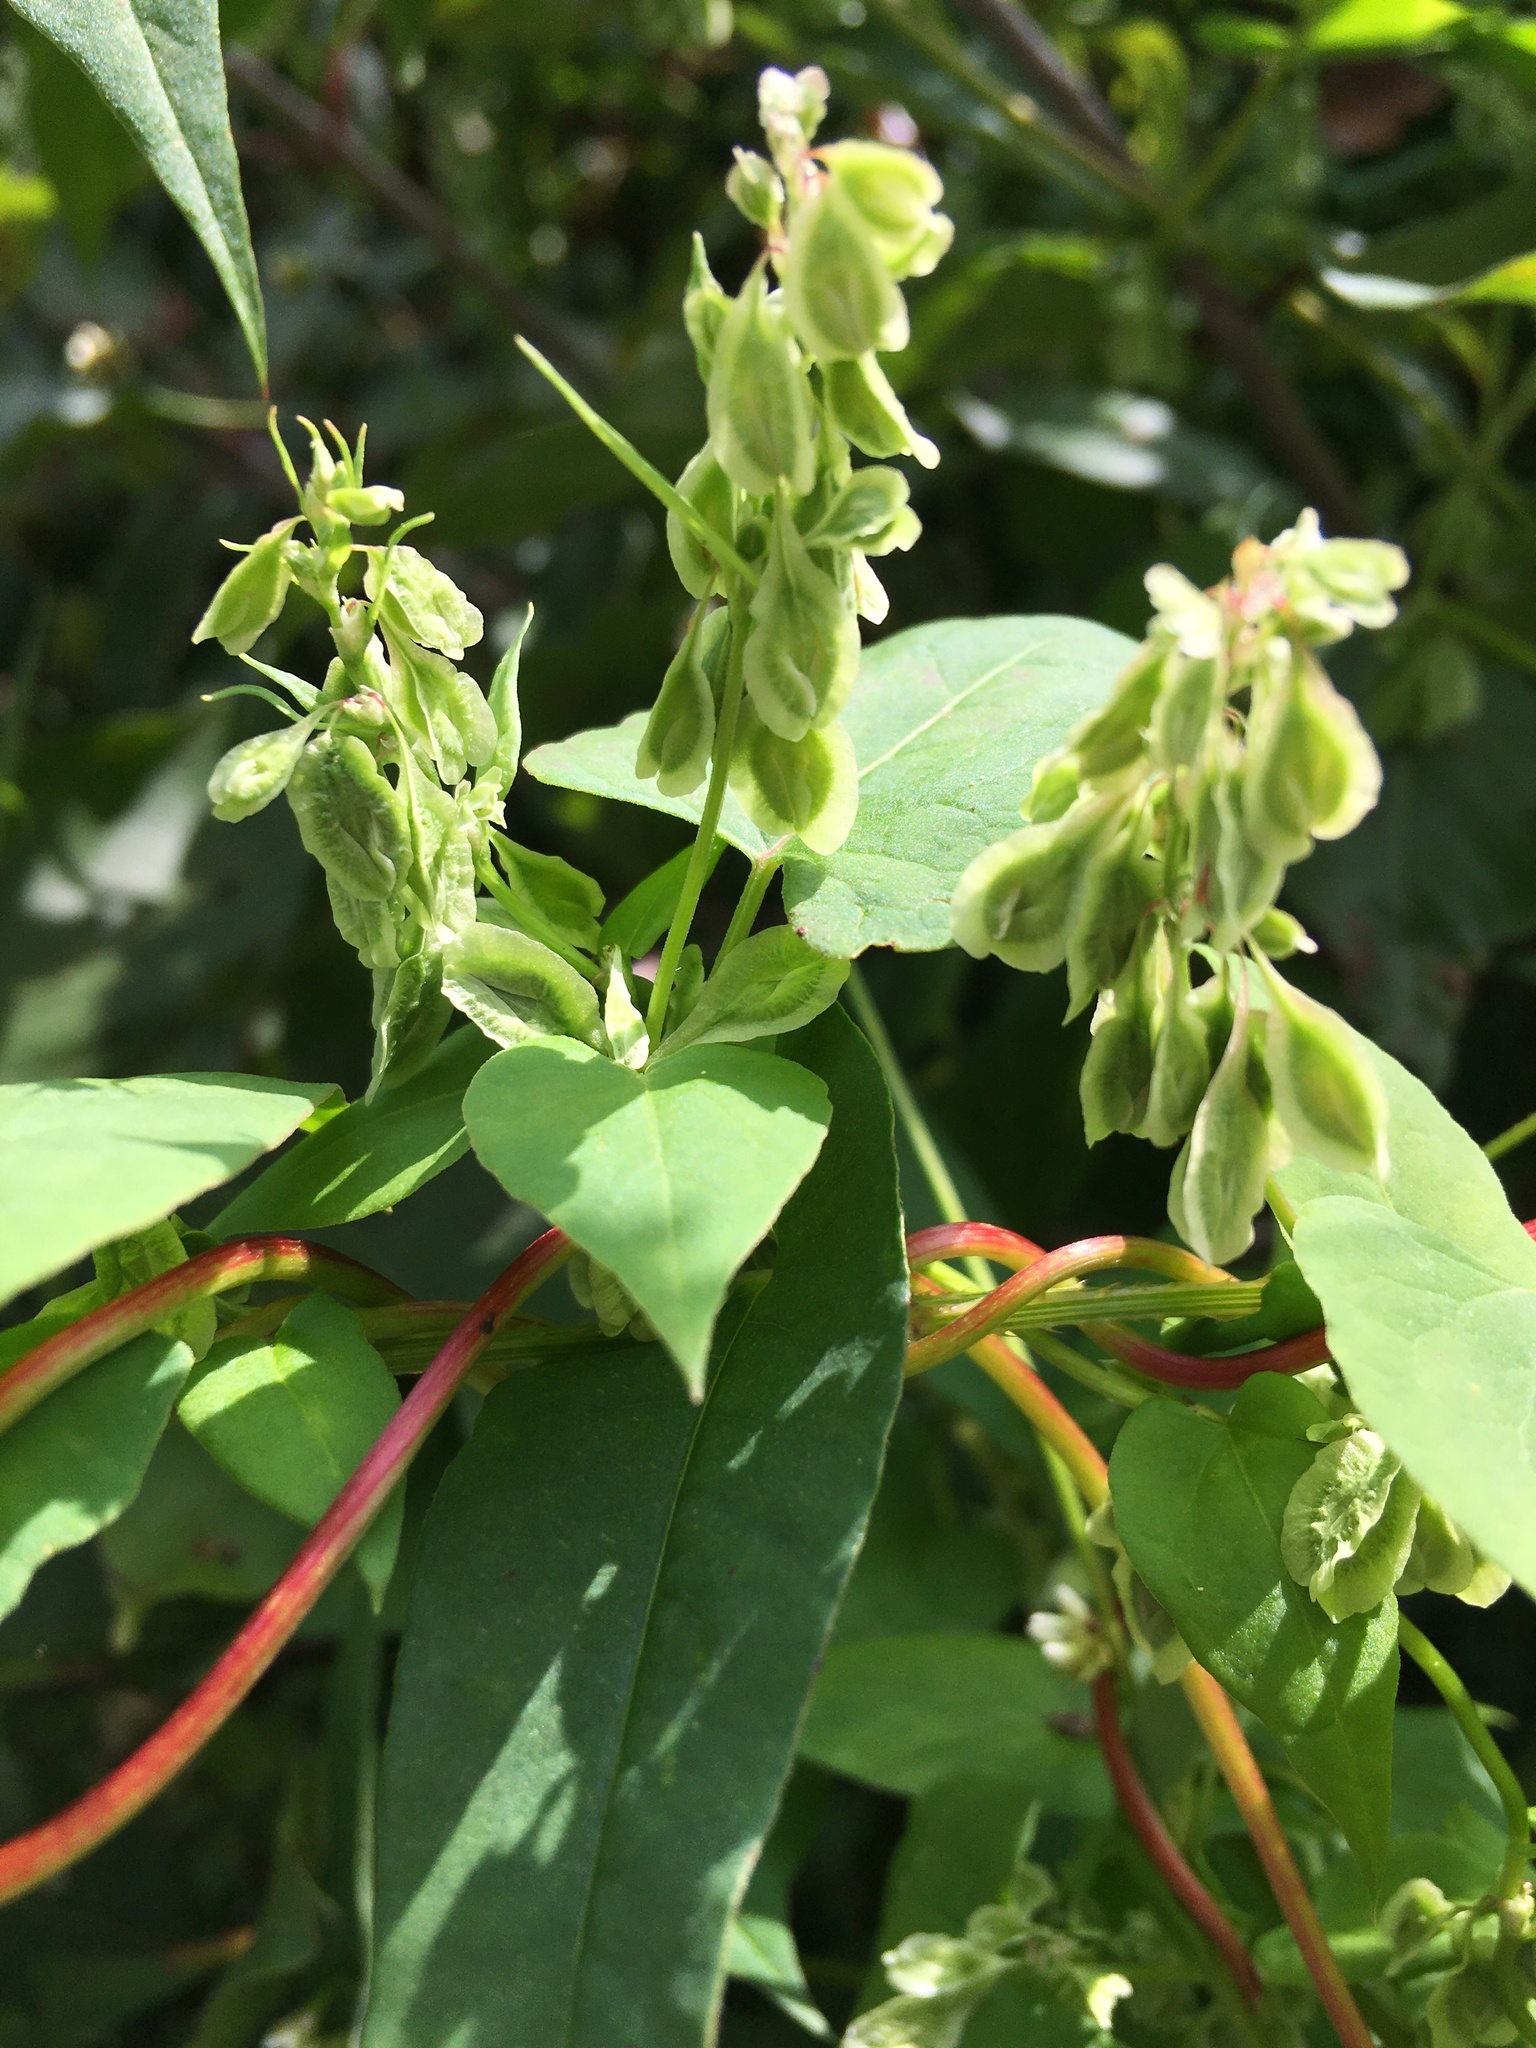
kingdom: Plantae
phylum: Tracheophyta
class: Magnoliopsida
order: Caryophyllales
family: Polygonaceae
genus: Fallopia
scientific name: Fallopia scandens
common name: Climbing false buckwheat
